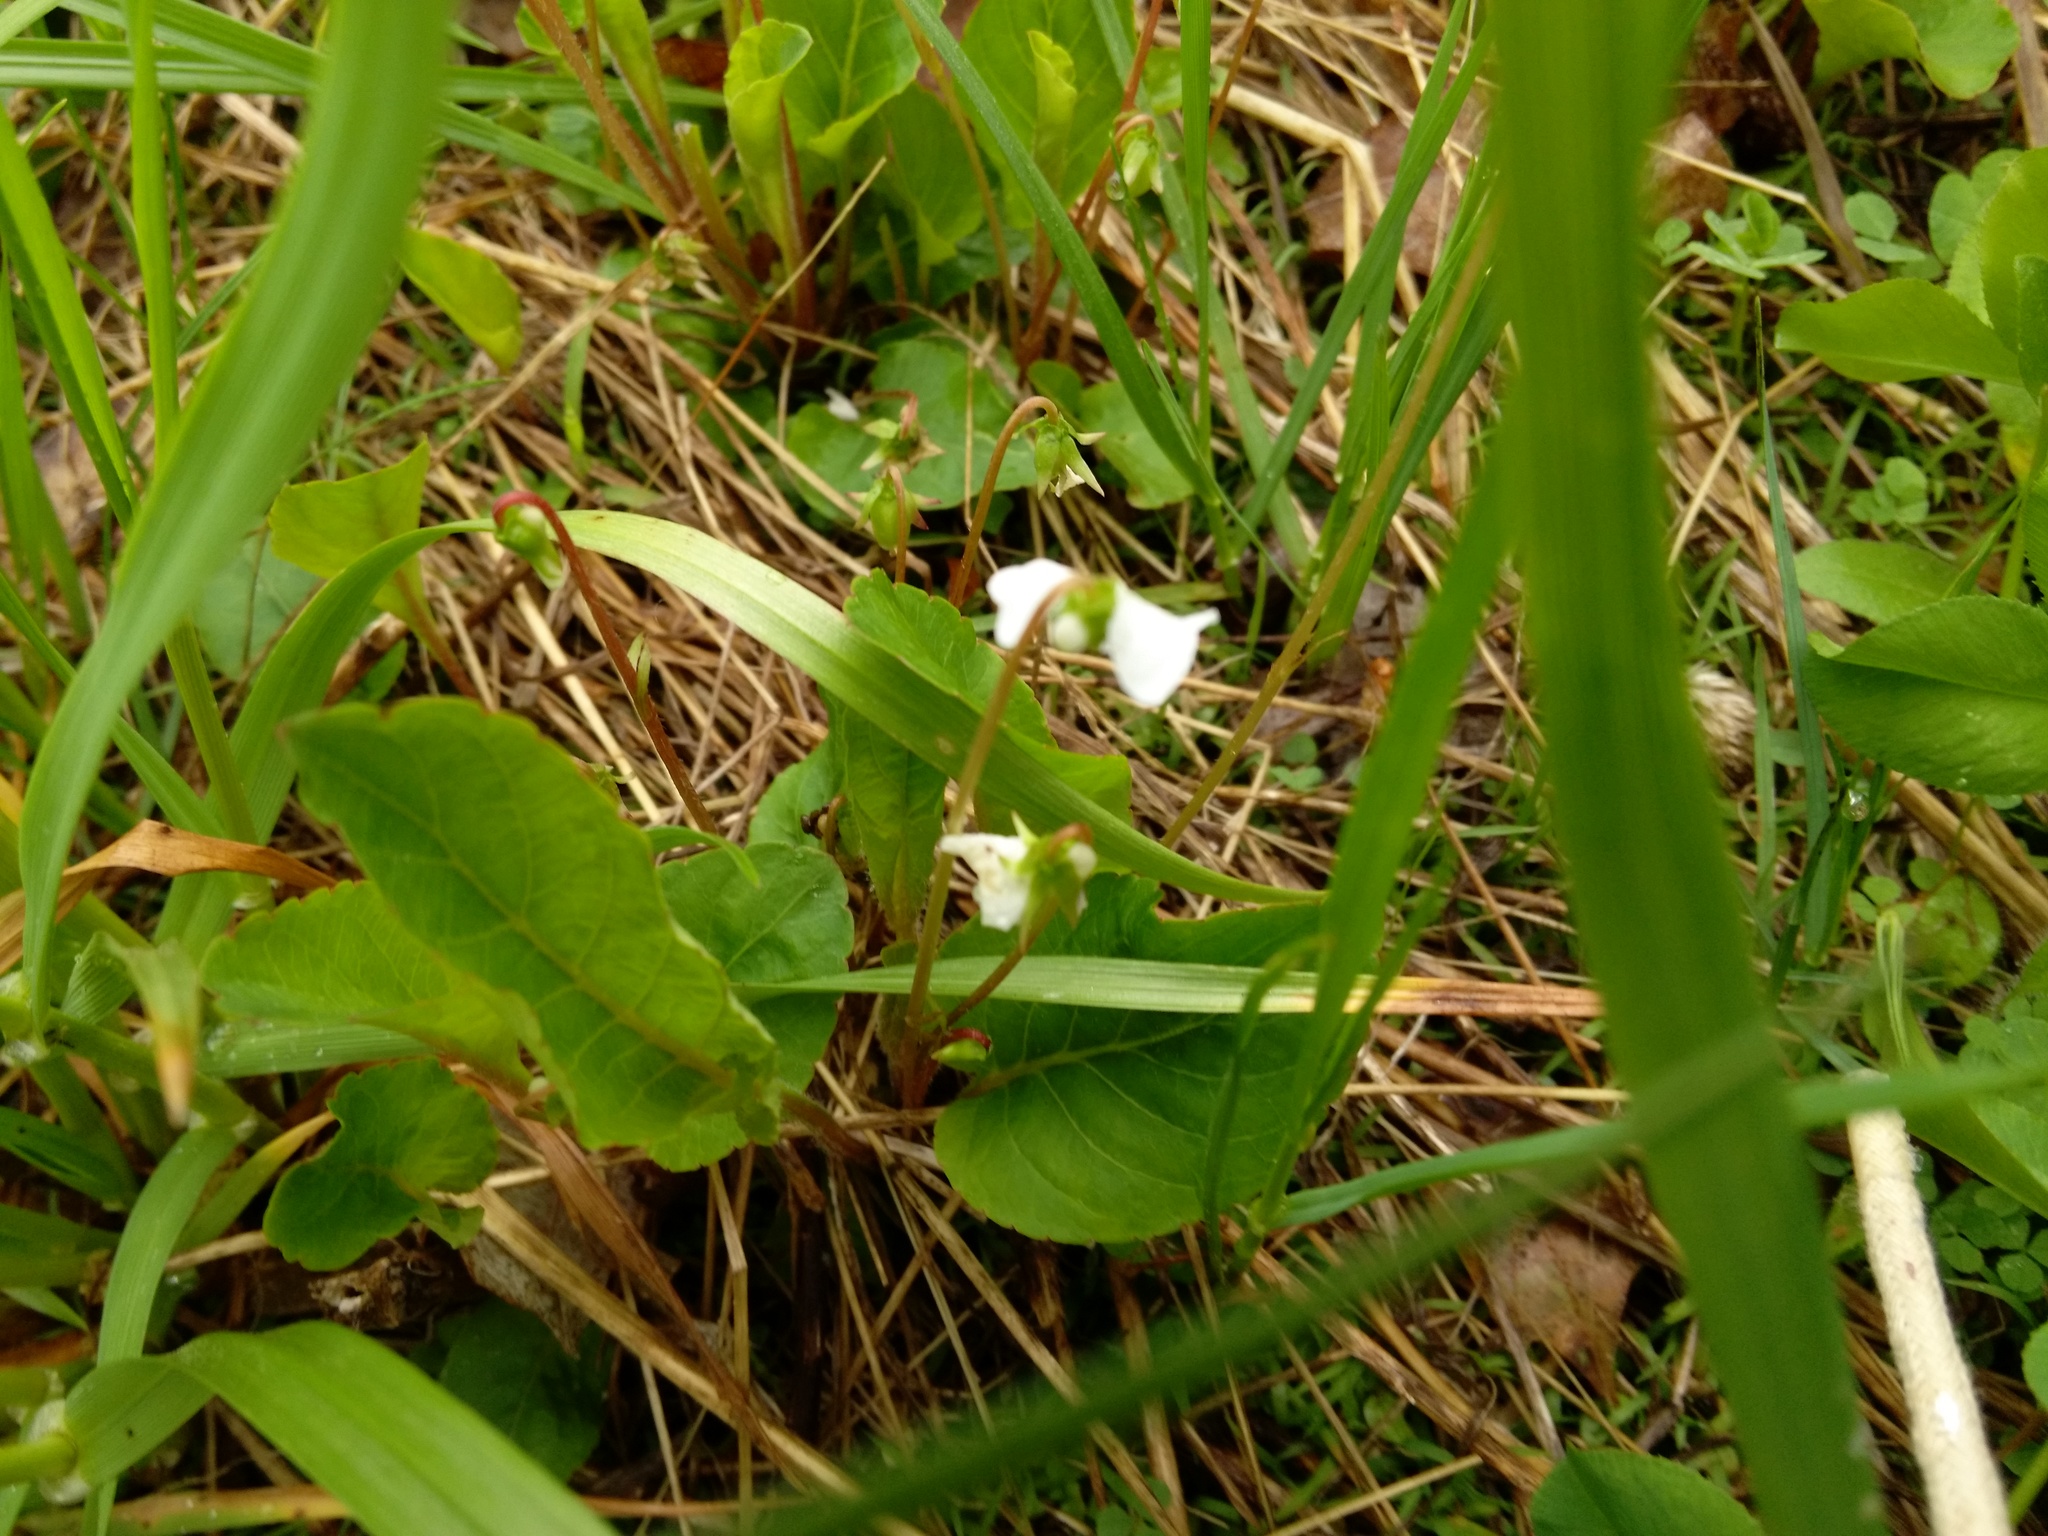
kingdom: Plantae
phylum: Tracheophyta
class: Magnoliopsida
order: Malpighiales
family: Violaceae
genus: Viola
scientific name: Viola lanceolata
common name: Bog white violet
